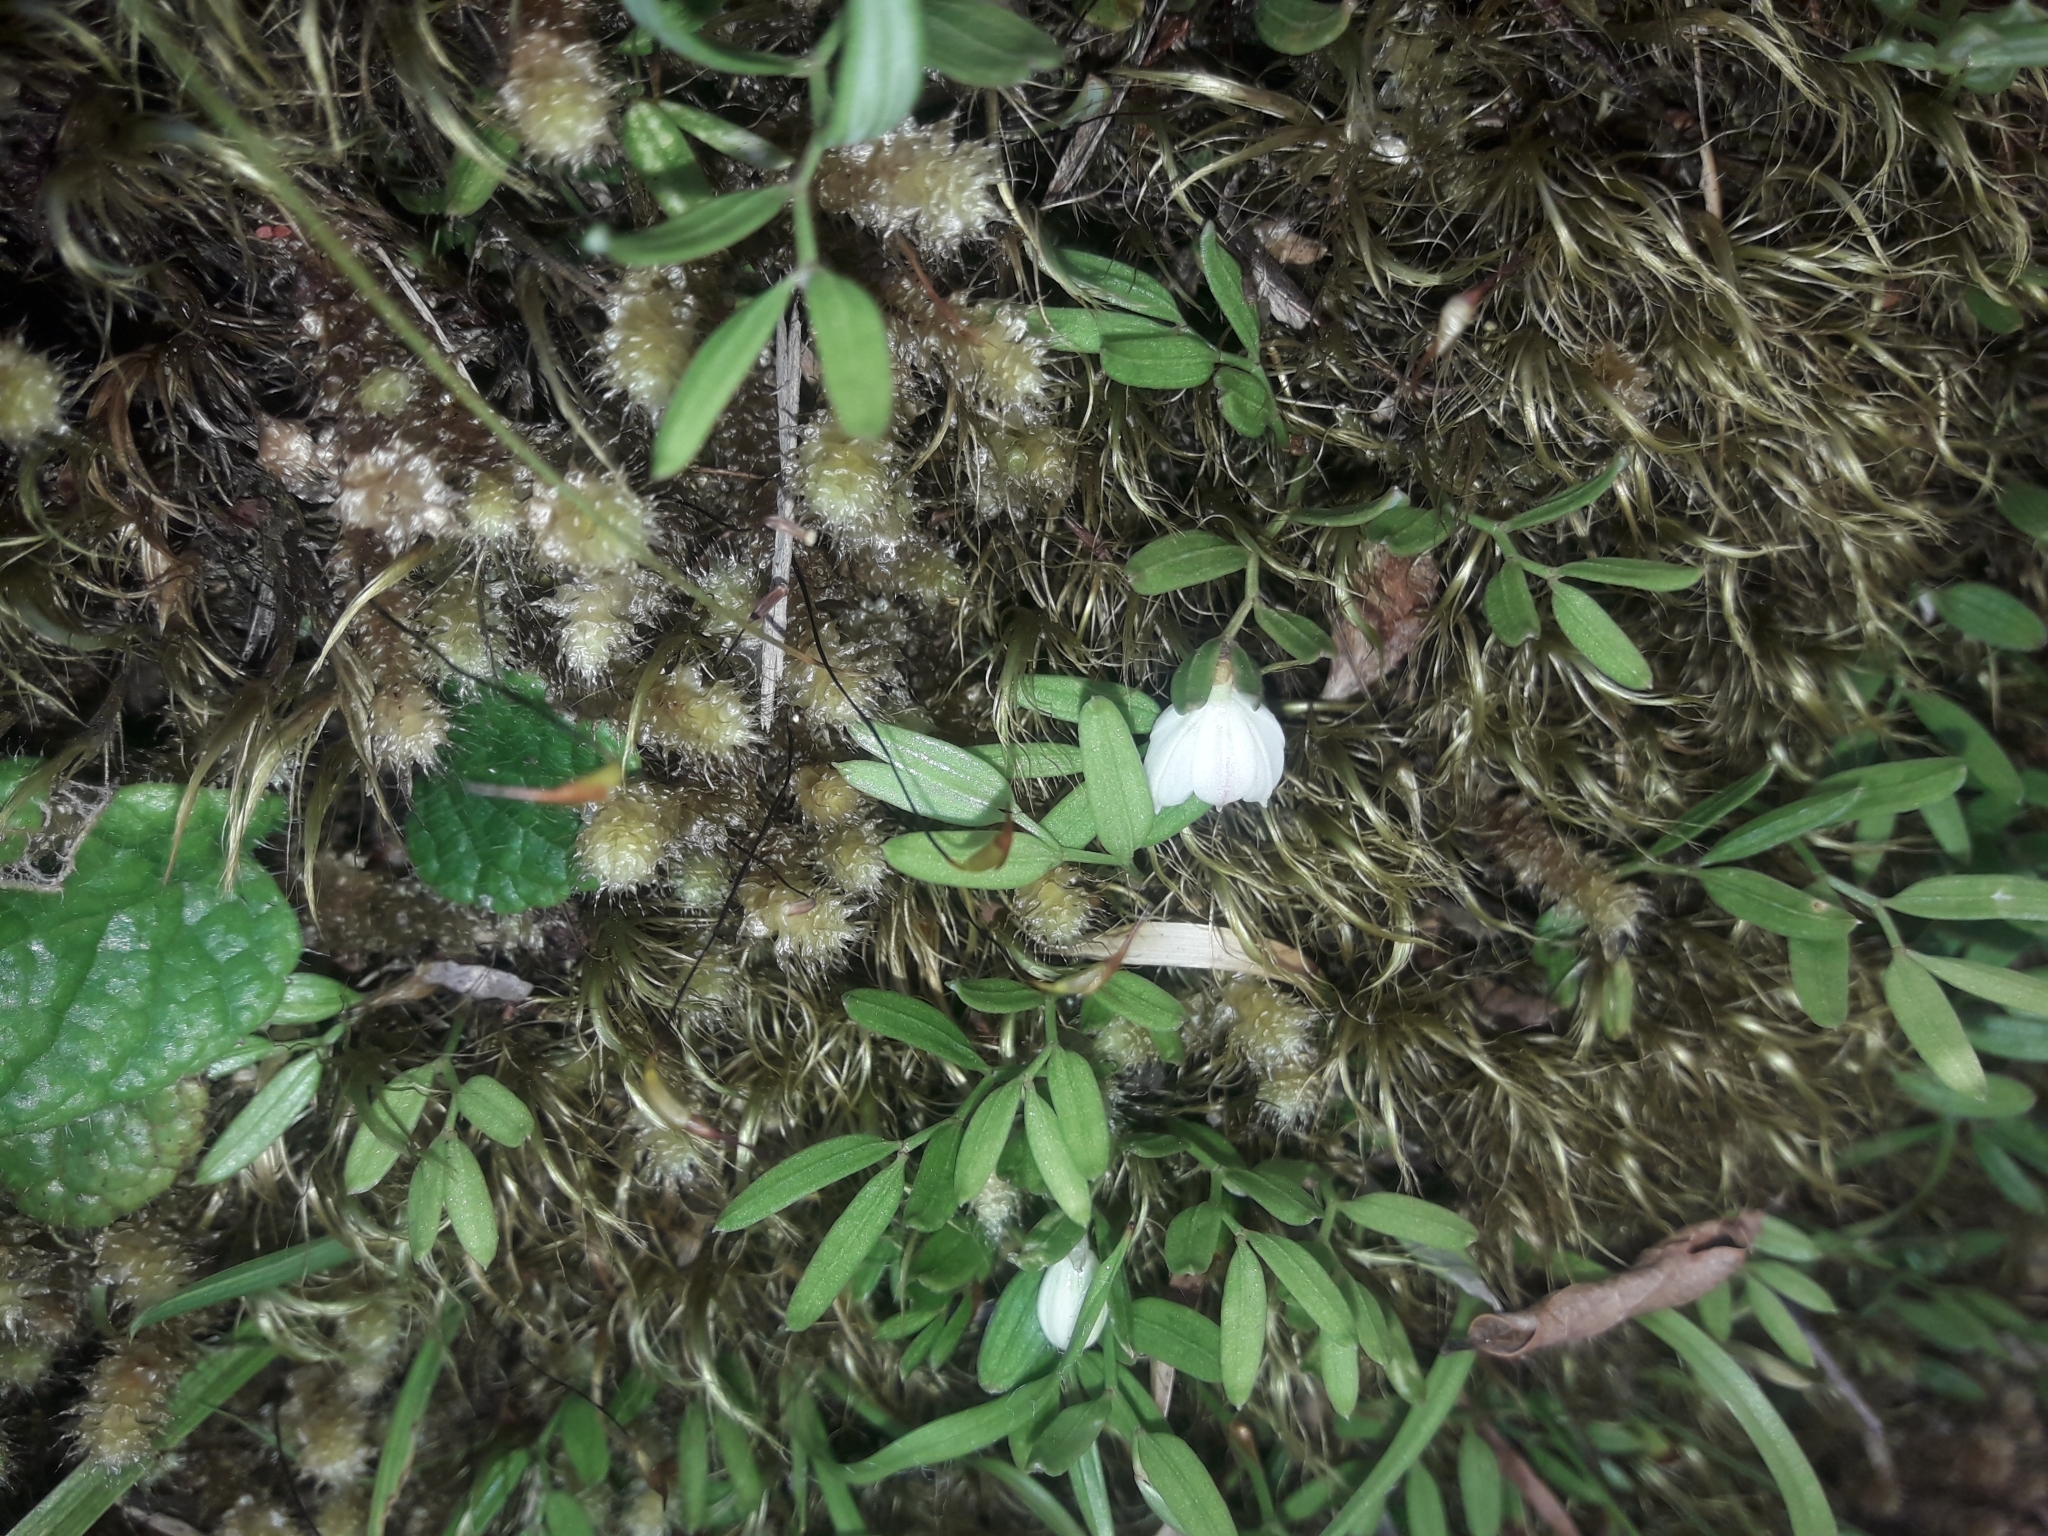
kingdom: Plantae
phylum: Tracheophyta
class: Liliopsida
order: Liliales
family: Alstroemeriaceae
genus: Luzuriaga
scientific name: Luzuriaga parviflora
